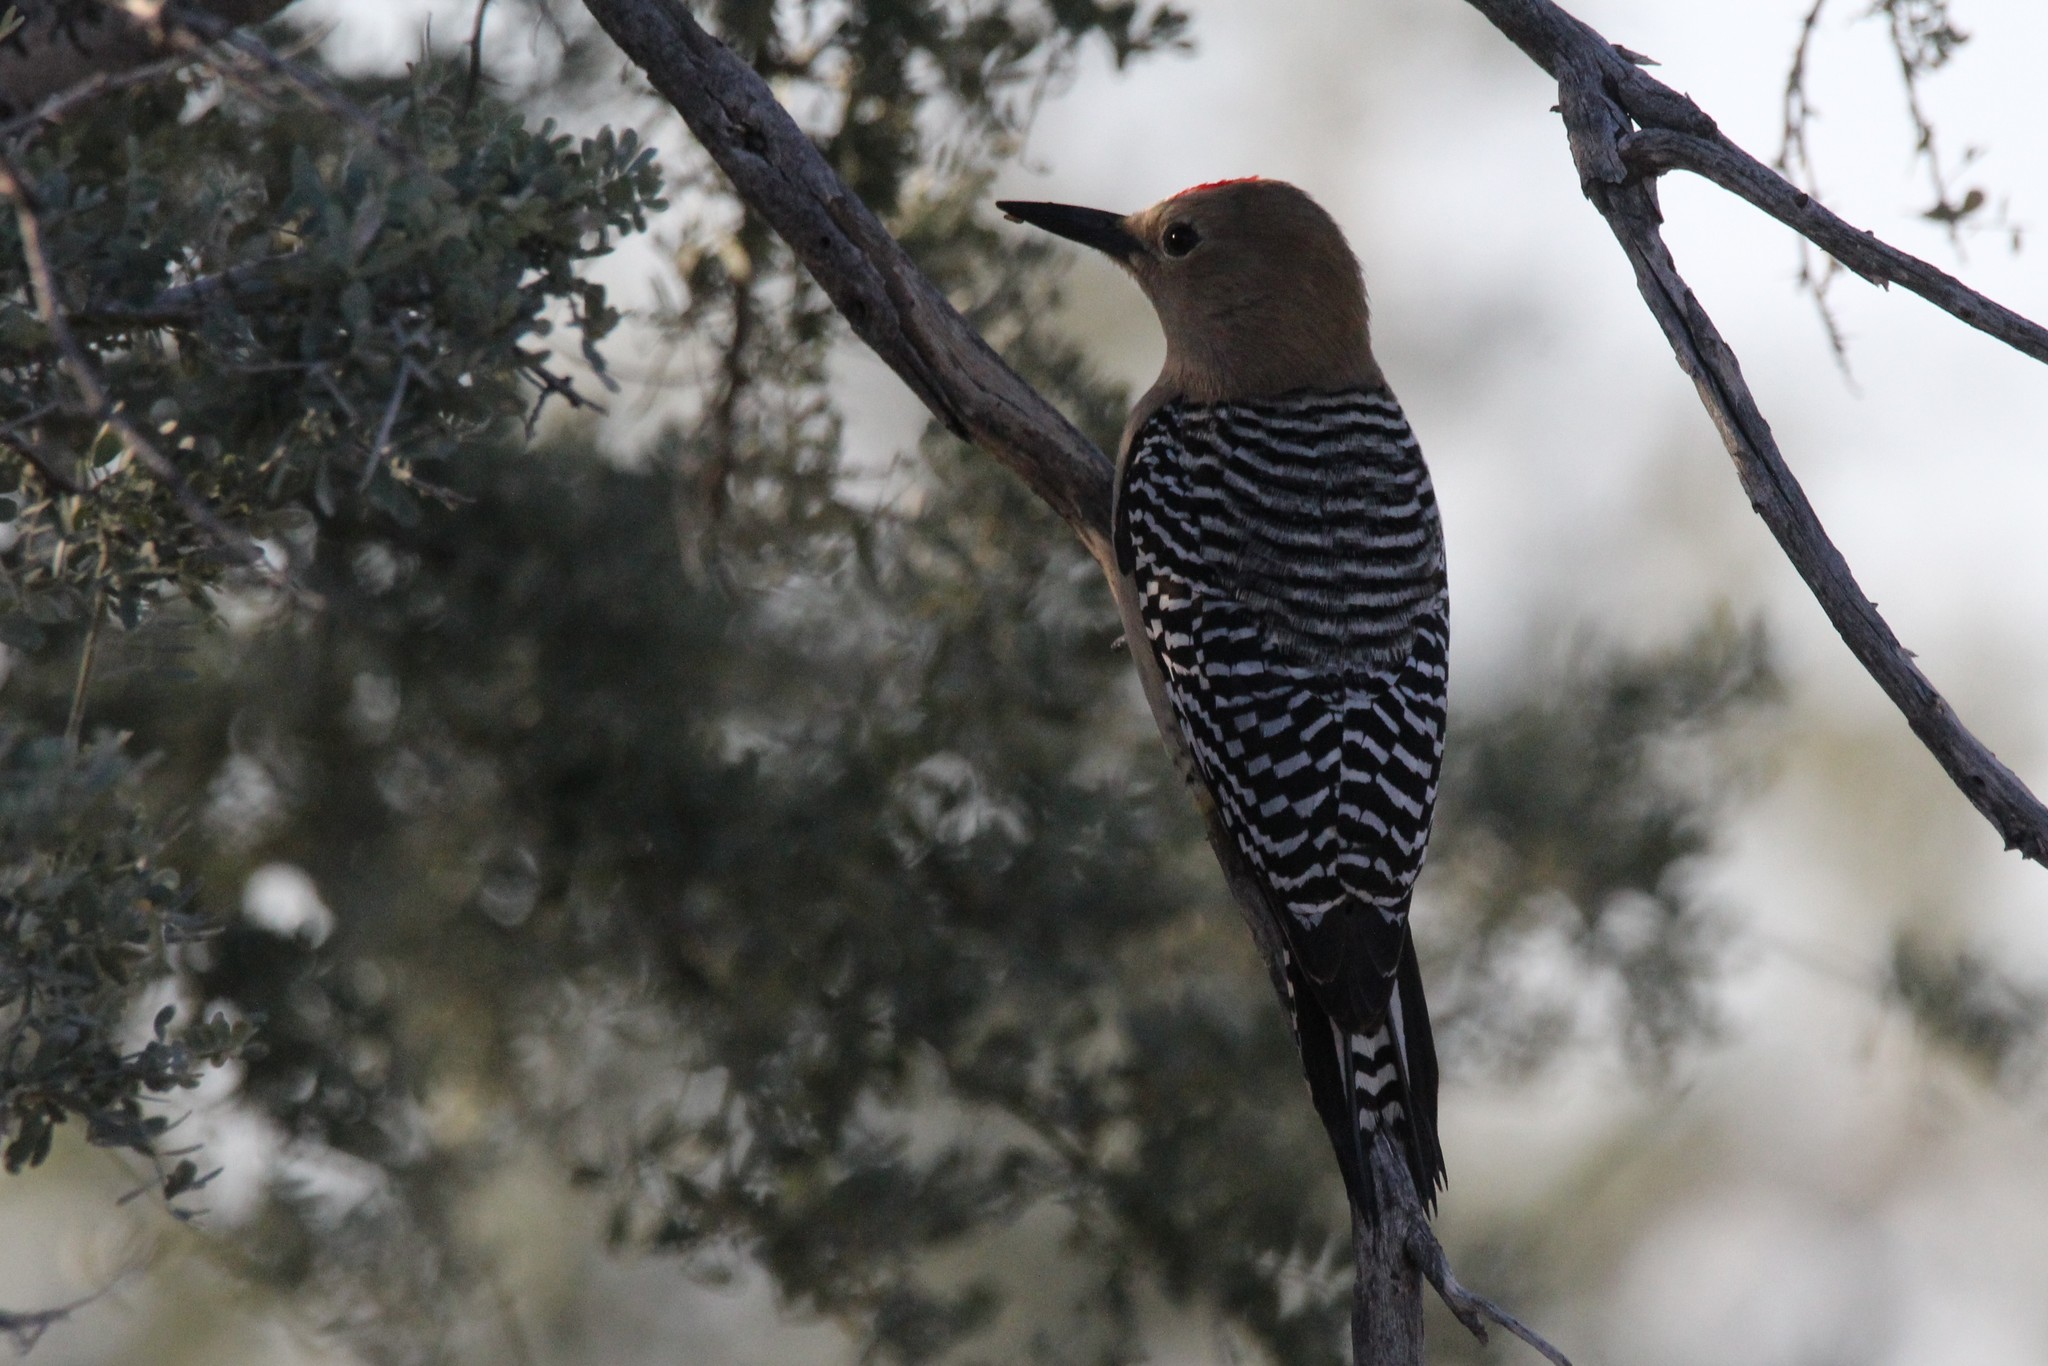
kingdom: Animalia
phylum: Chordata
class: Aves
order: Piciformes
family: Picidae
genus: Melanerpes
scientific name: Melanerpes uropygialis
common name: Gila woodpecker
